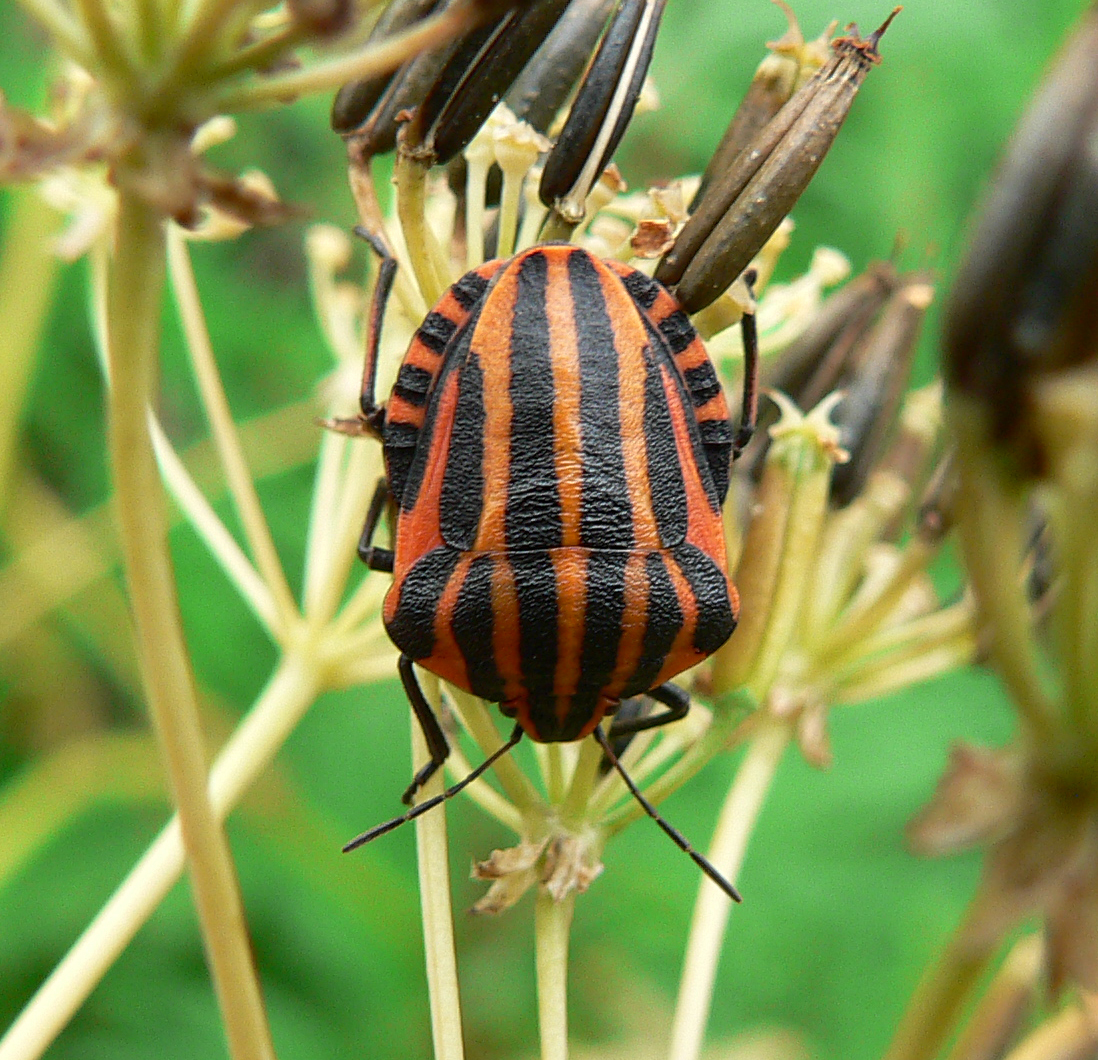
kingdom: Animalia
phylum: Arthropoda
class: Insecta
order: Hemiptera
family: Pentatomidae
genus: Graphosoma
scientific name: Graphosoma italicum
